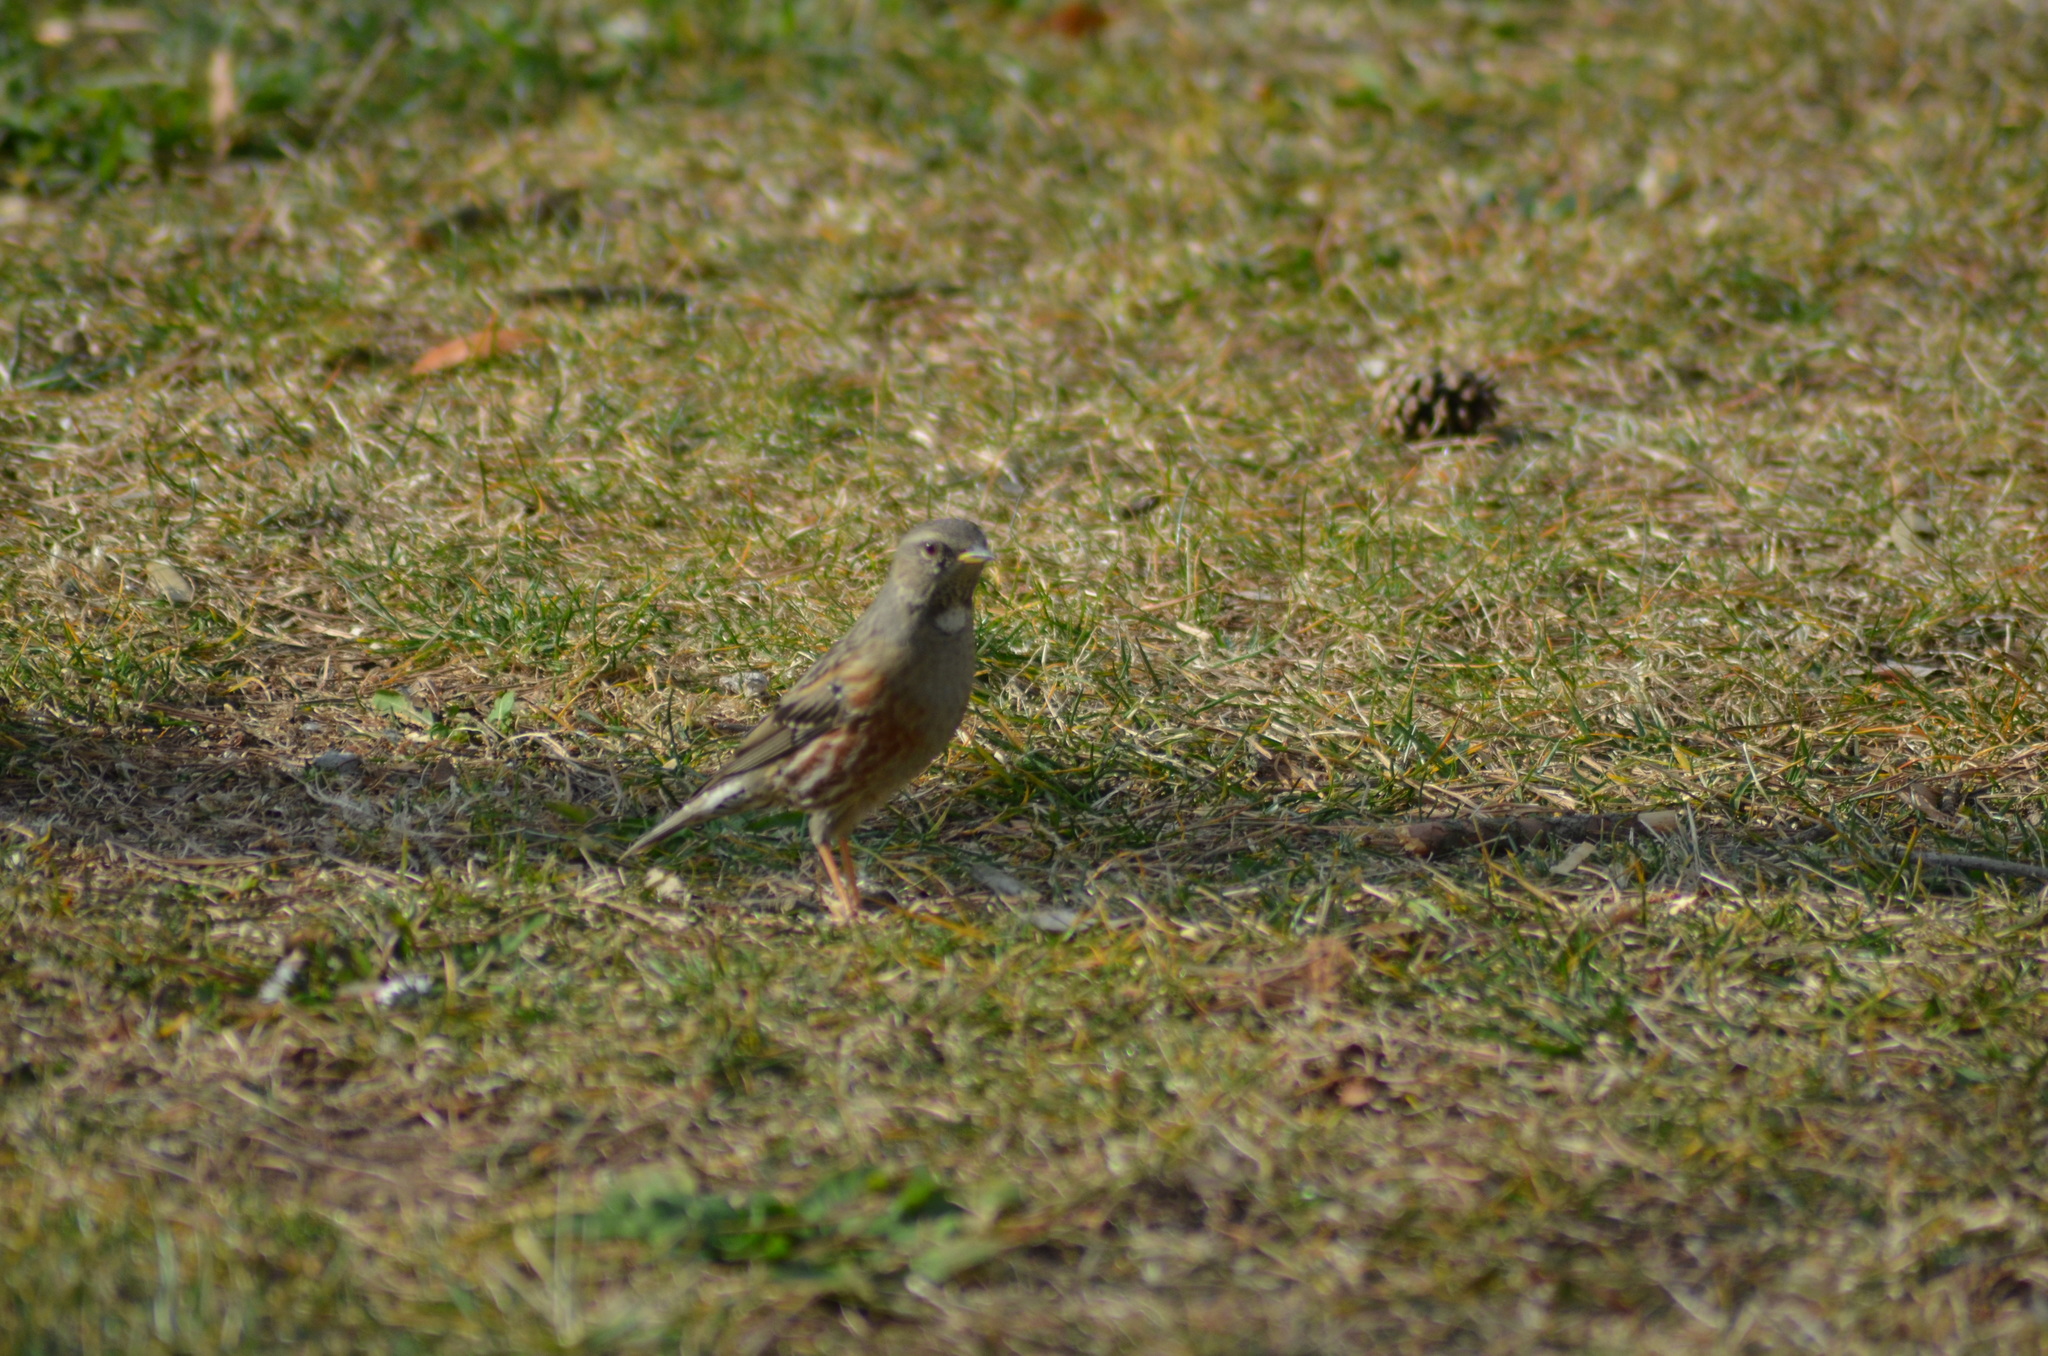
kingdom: Animalia
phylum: Chordata
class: Aves
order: Passeriformes
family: Prunellidae
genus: Prunella
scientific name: Prunella collaris
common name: Alpine accentor
